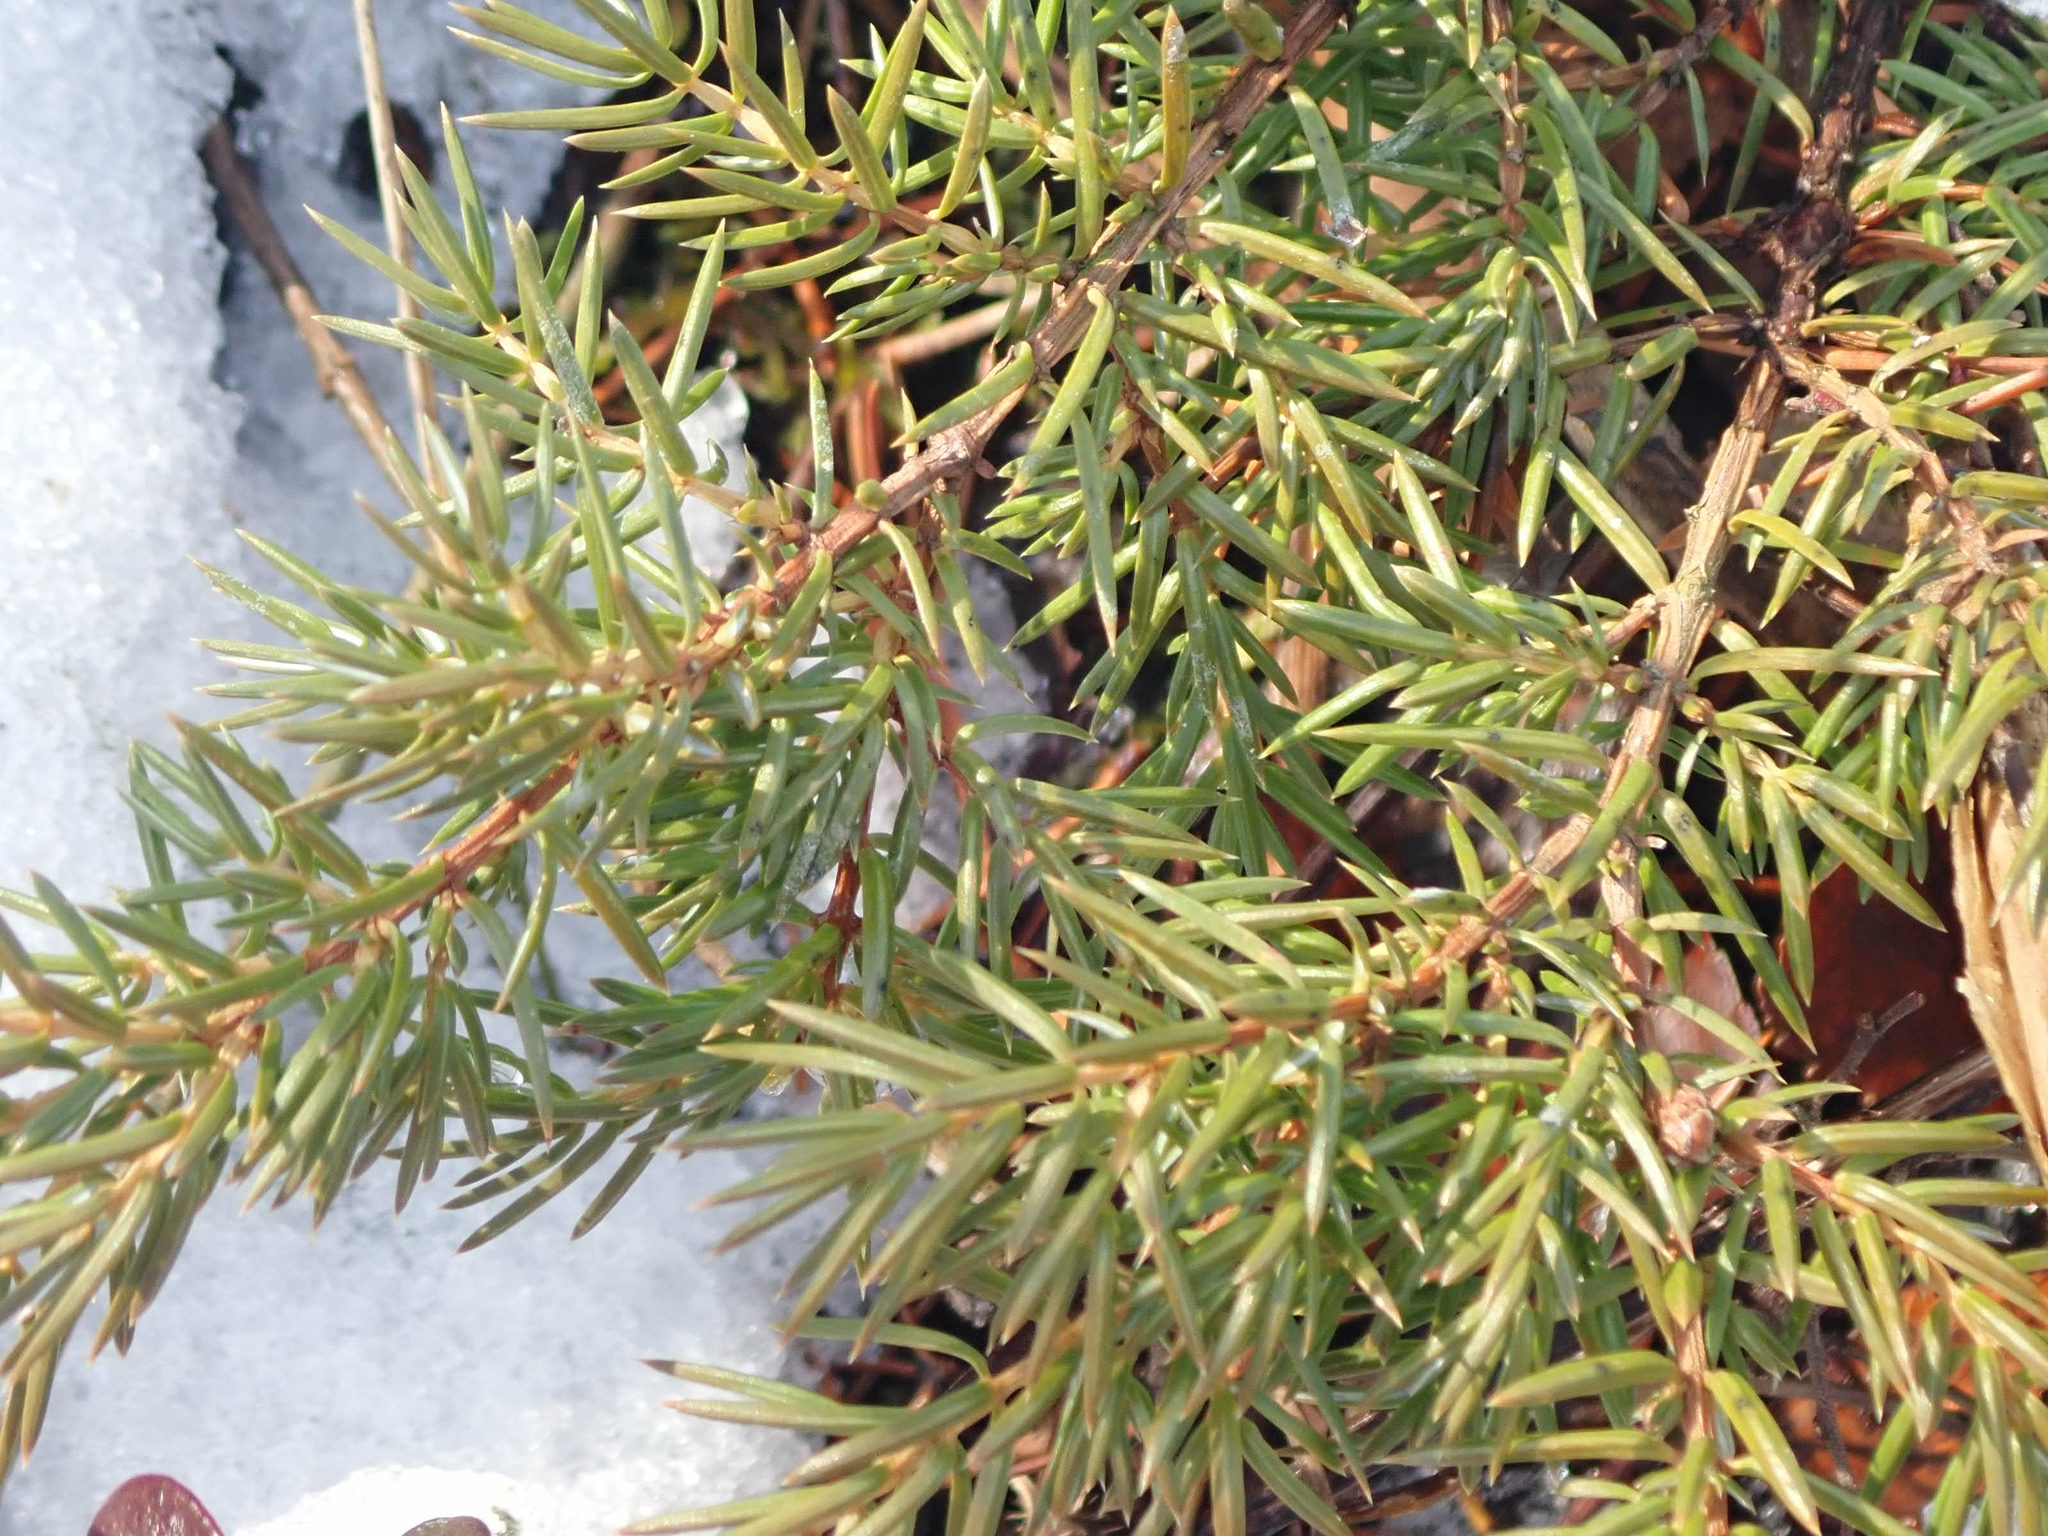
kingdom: Plantae
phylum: Tracheophyta
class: Pinopsida
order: Pinales
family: Cupressaceae
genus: Juniperus
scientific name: Juniperus communis
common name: Common juniper
